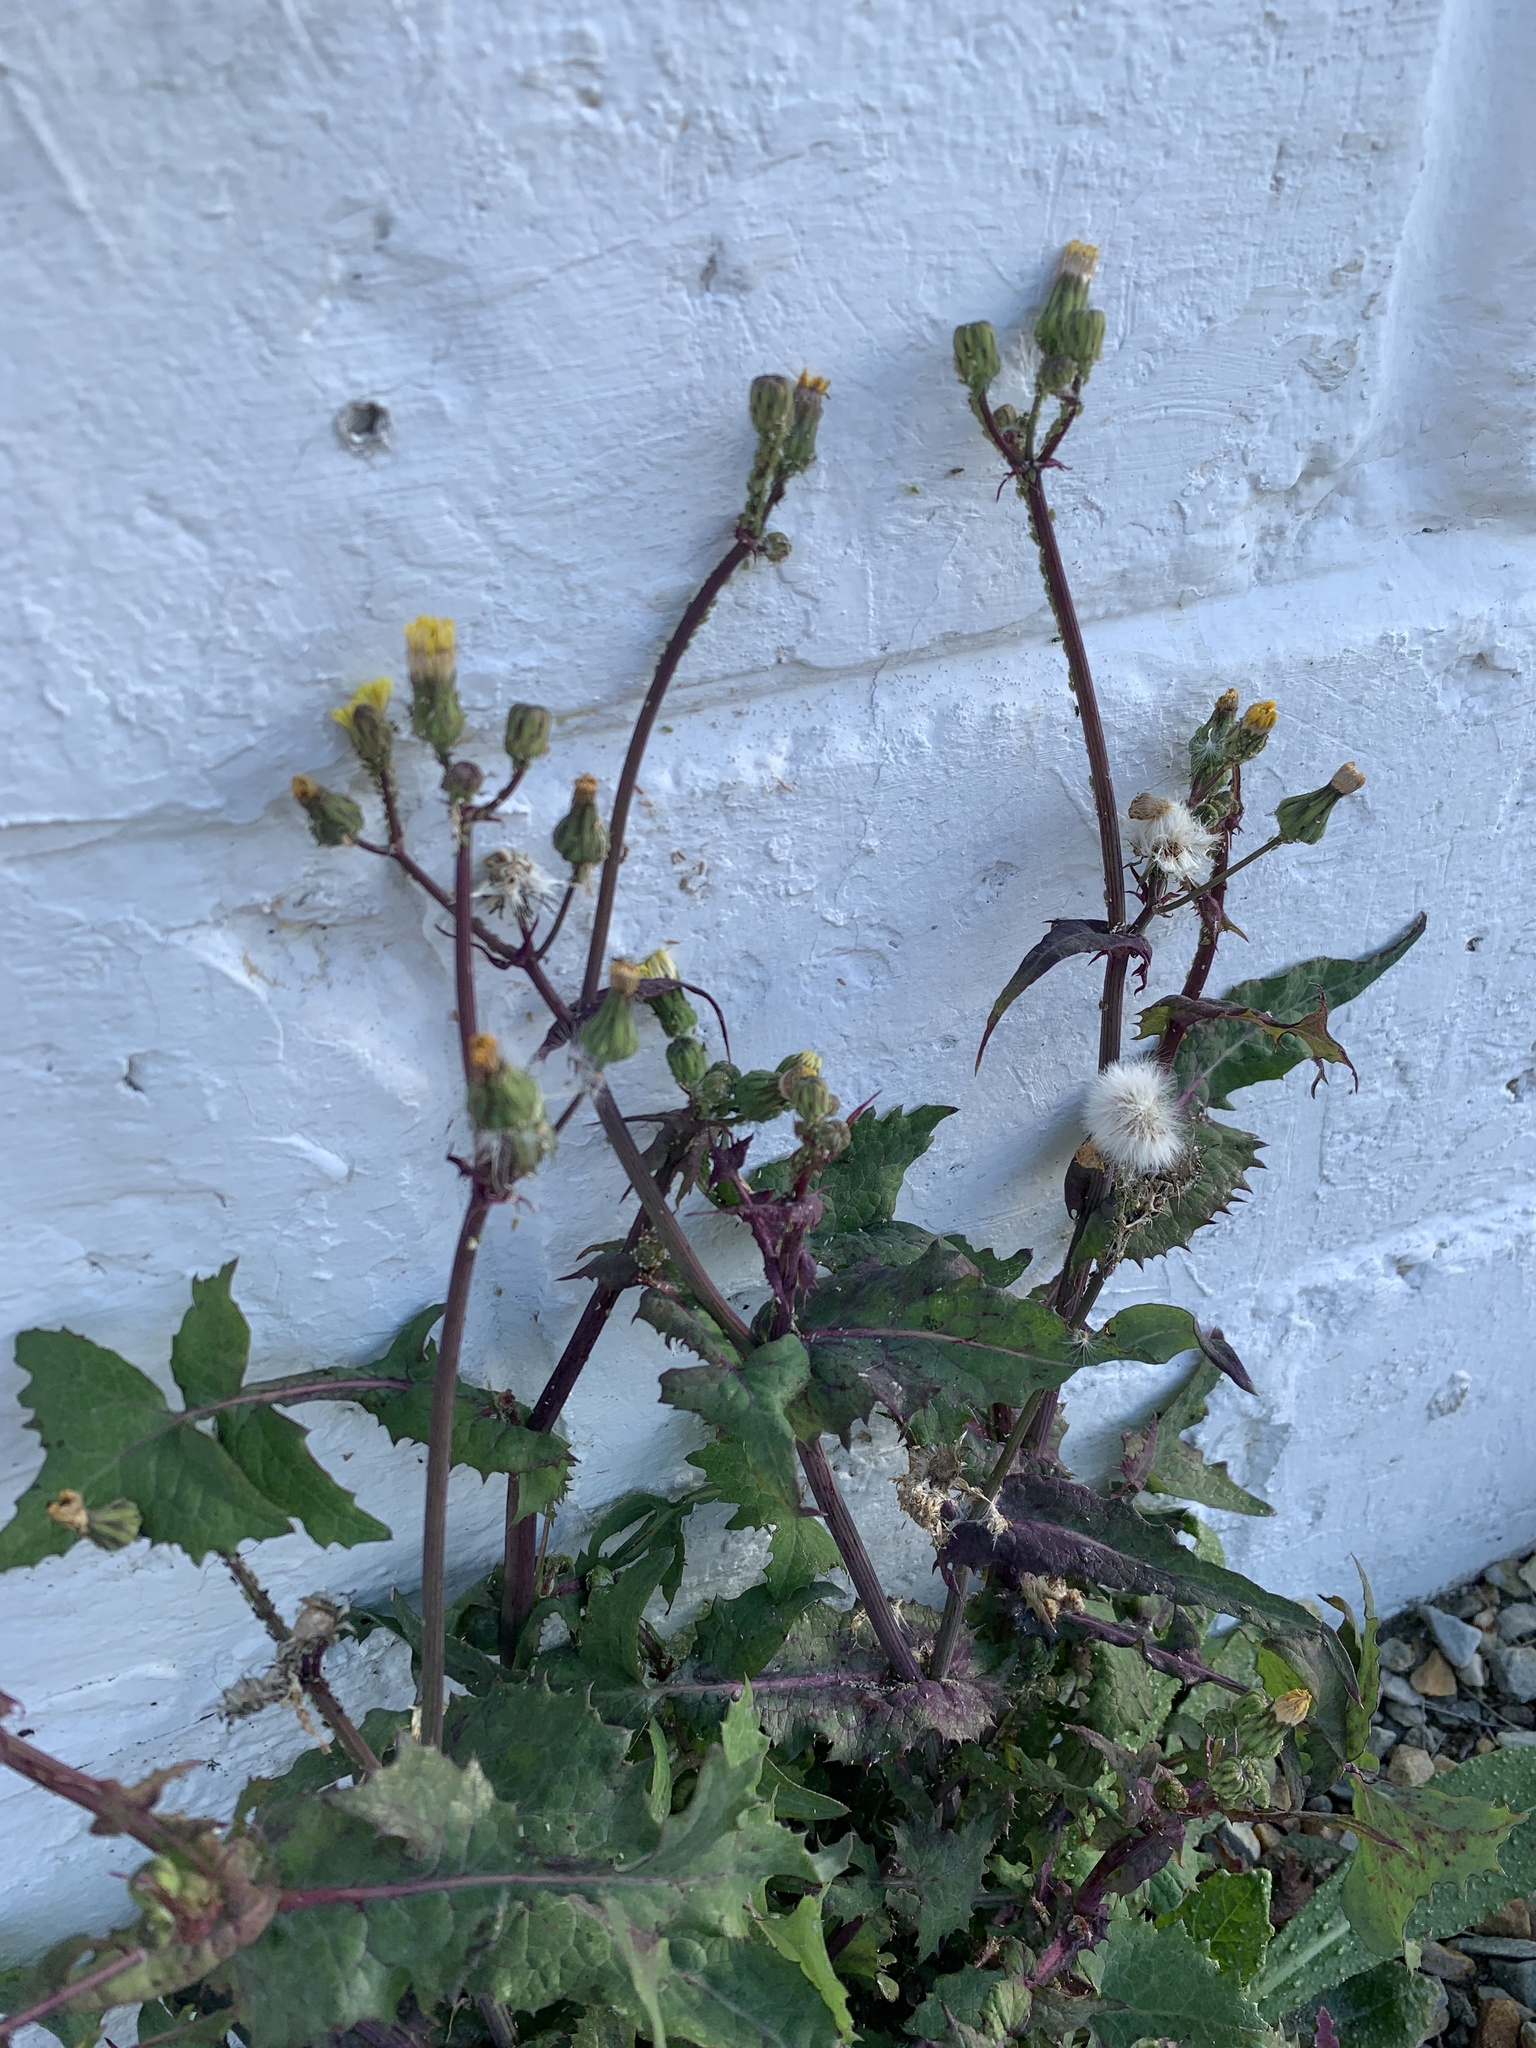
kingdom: Plantae
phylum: Tracheophyta
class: Magnoliopsida
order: Asterales
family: Asteraceae
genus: Sonchus
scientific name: Sonchus oleraceus
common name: Common sowthistle
